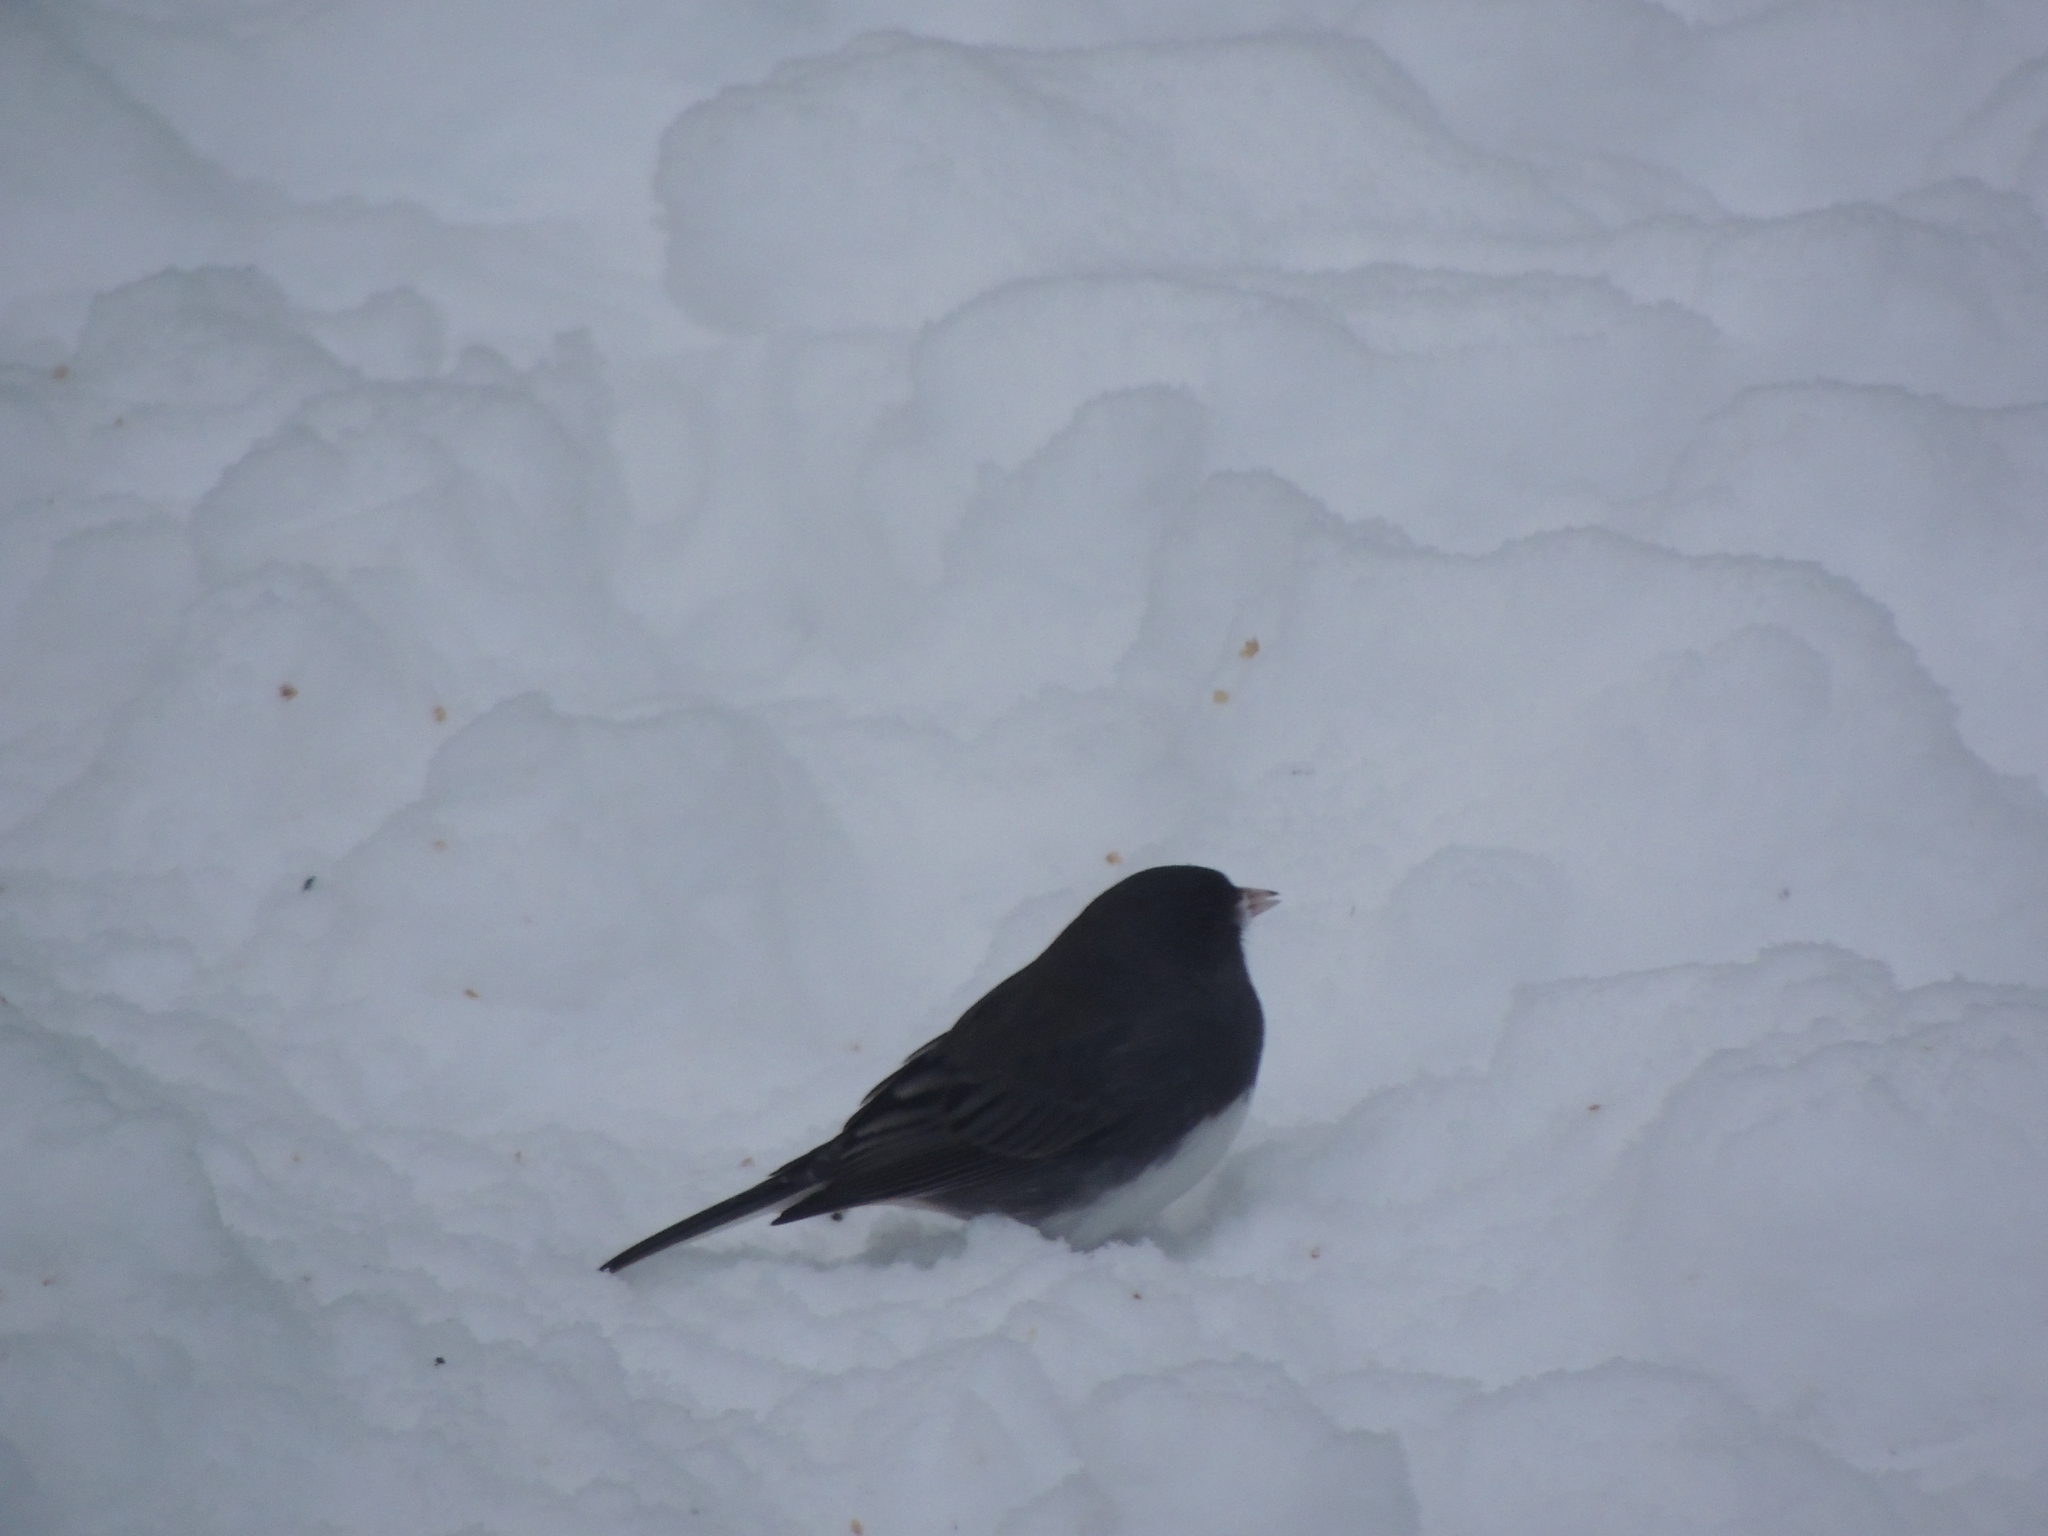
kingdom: Animalia
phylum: Chordata
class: Aves
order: Passeriformes
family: Passerellidae
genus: Junco
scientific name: Junco hyemalis
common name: Dark-eyed junco
